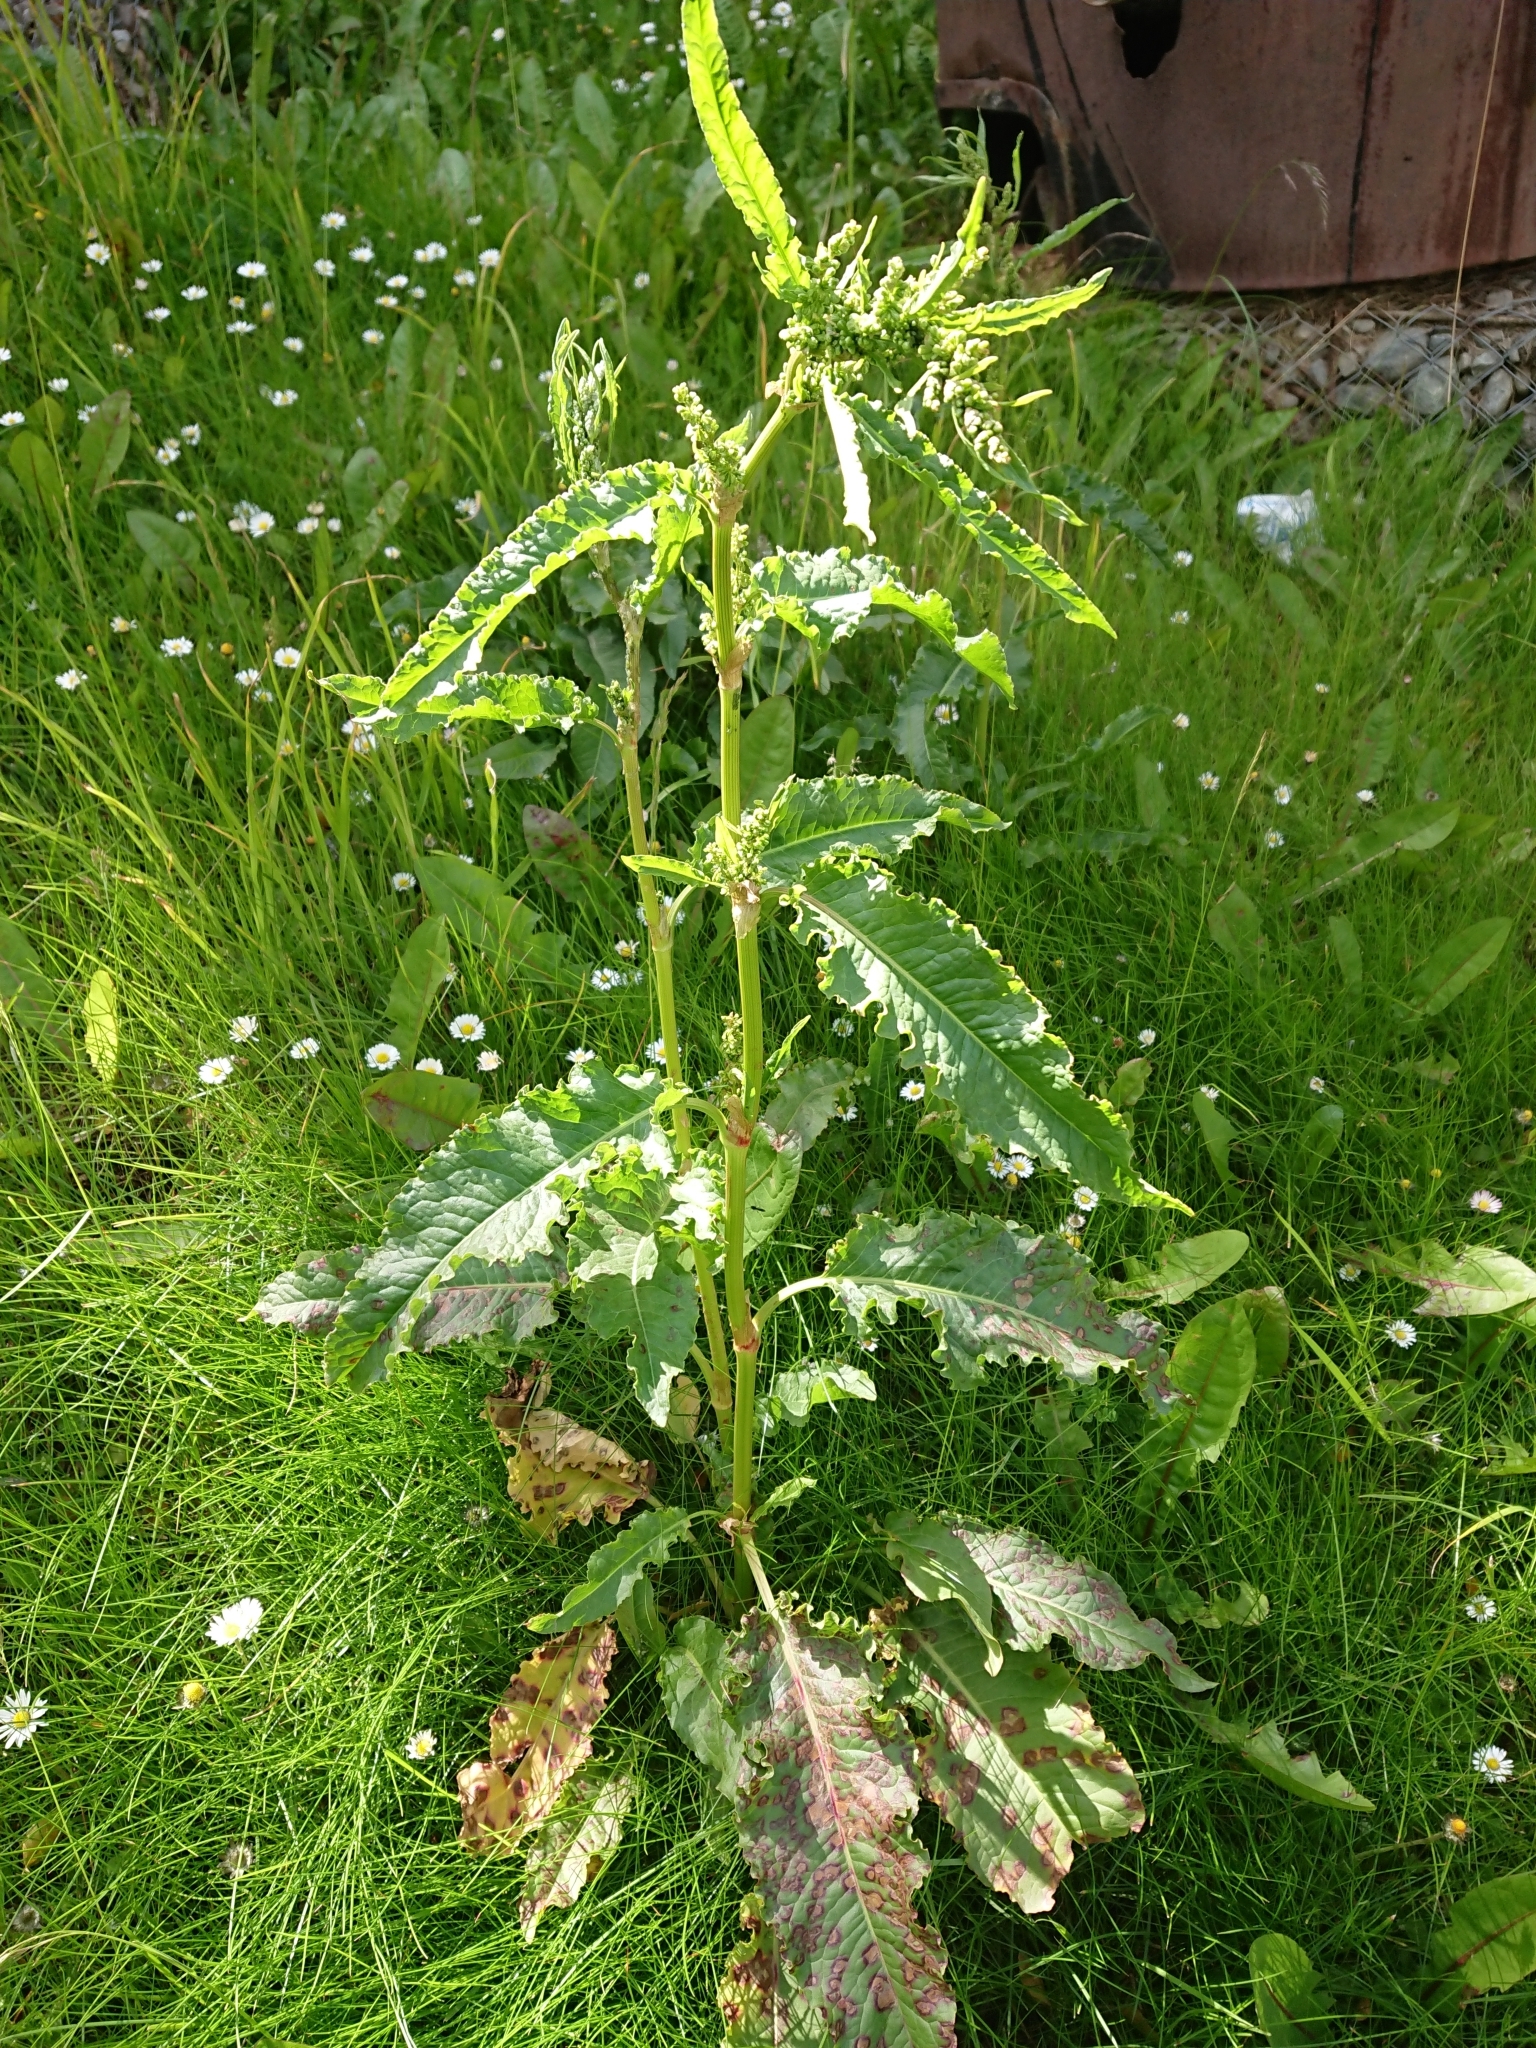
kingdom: Plantae
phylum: Tracheophyta
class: Magnoliopsida
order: Caryophyllales
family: Polygonaceae
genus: Rumex
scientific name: Rumex crispus
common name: Curled dock
